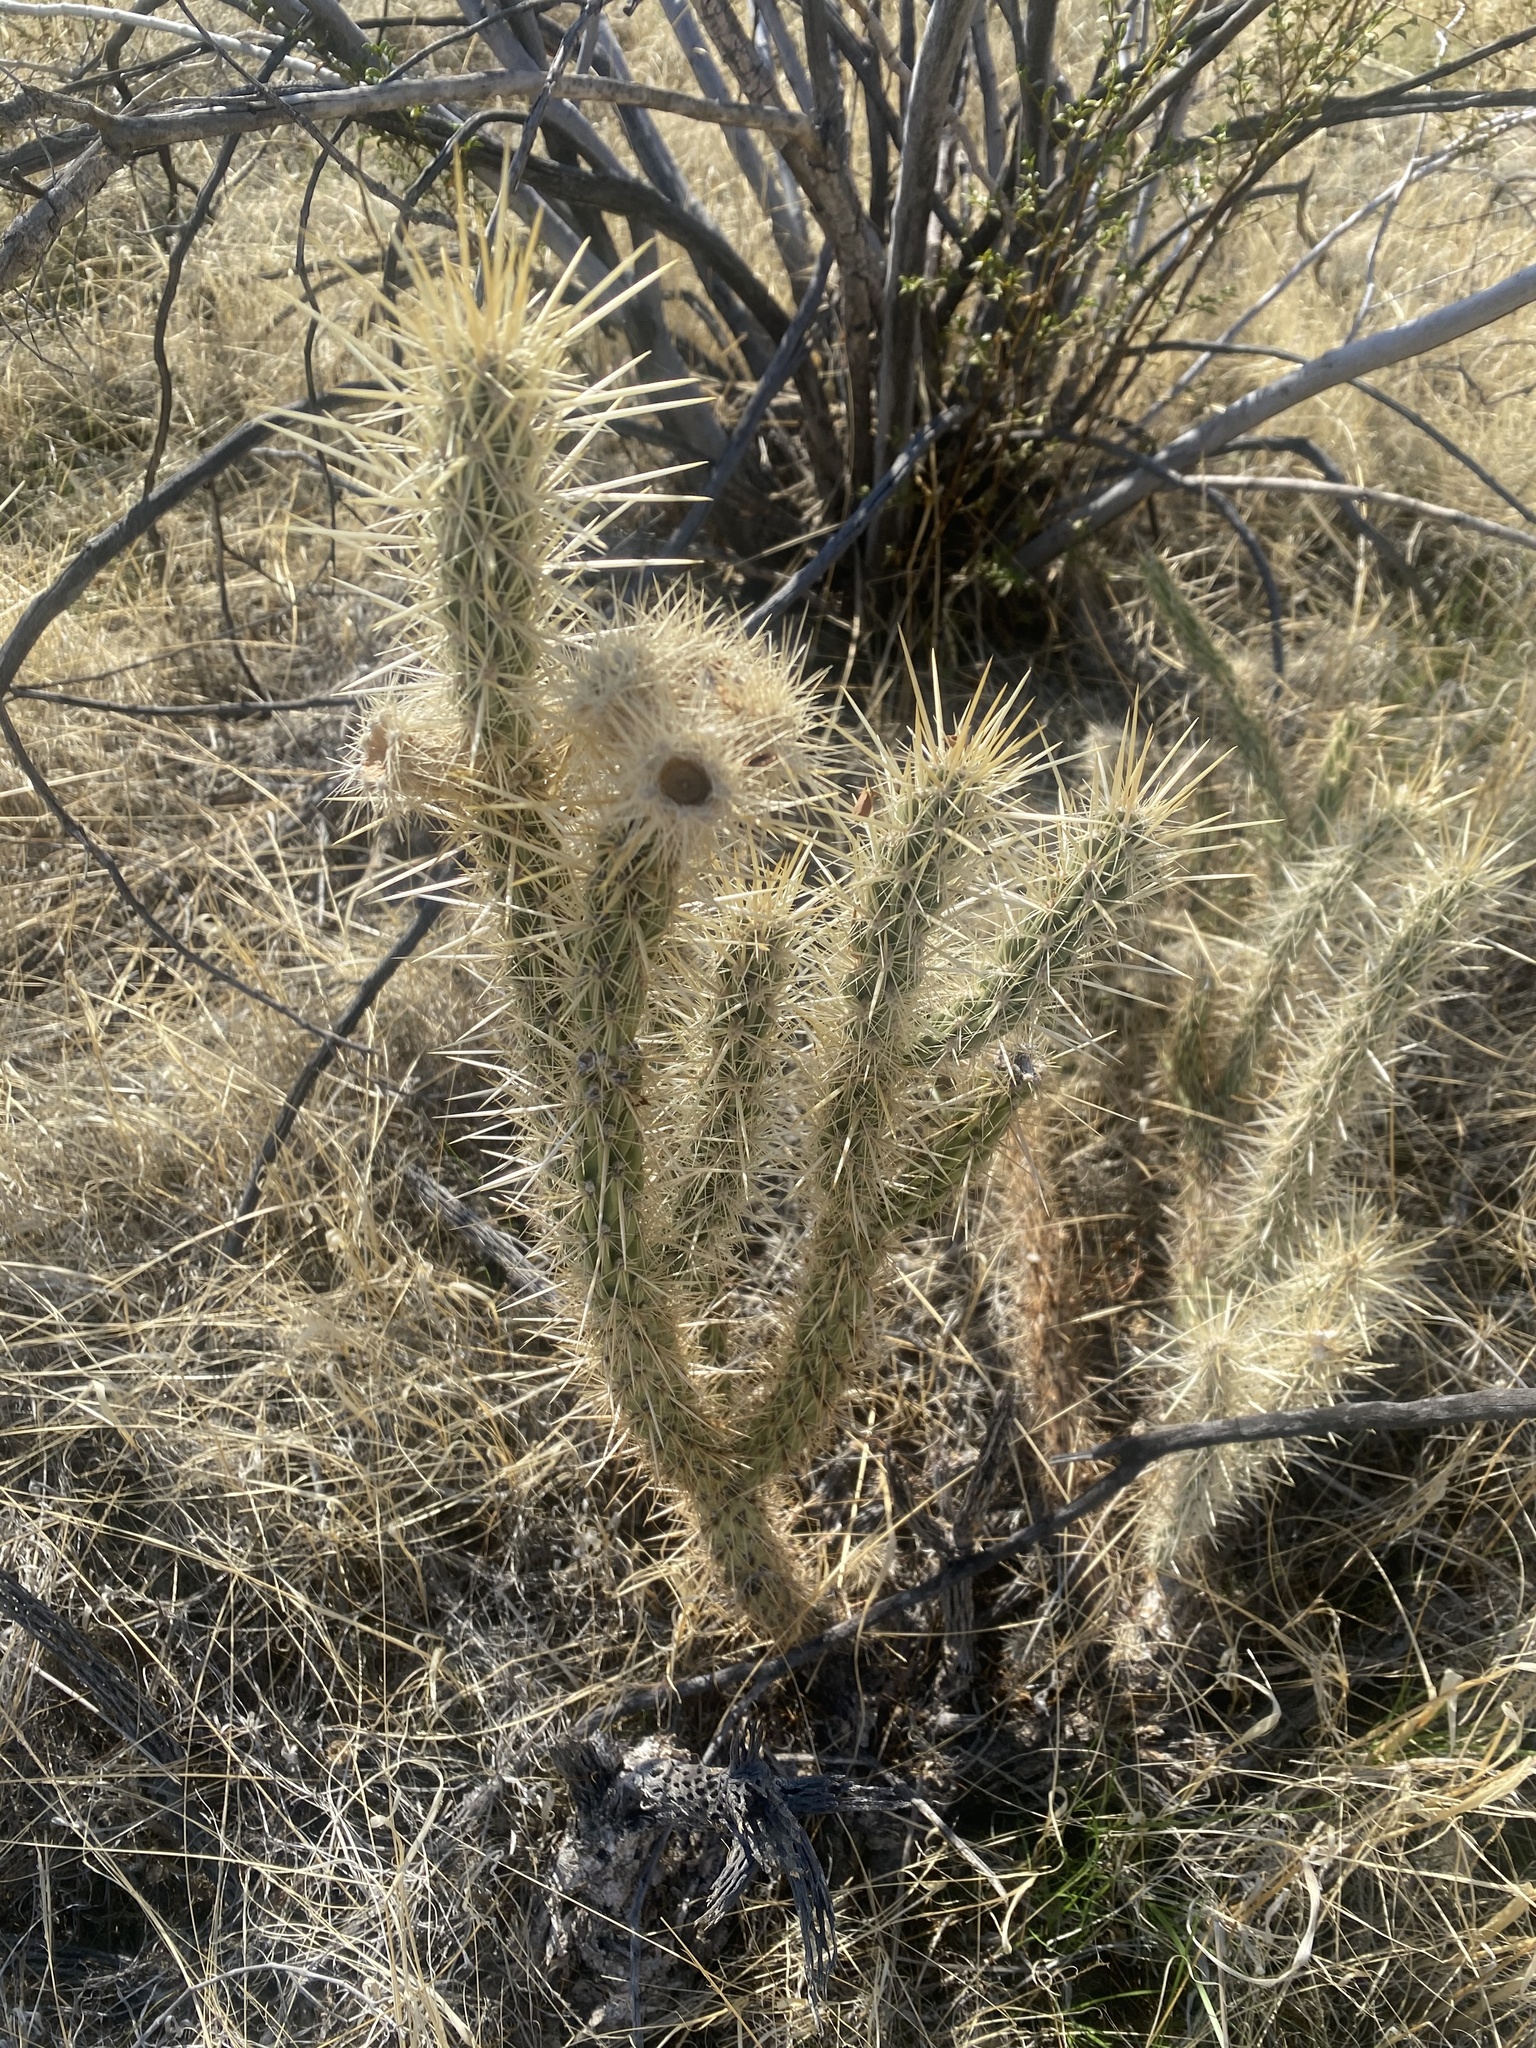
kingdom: Plantae
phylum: Tracheophyta
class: Magnoliopsida
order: Caryophyllales
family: Cactaceae
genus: Cylindropuntia
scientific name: Cylindropuntia ganderi
